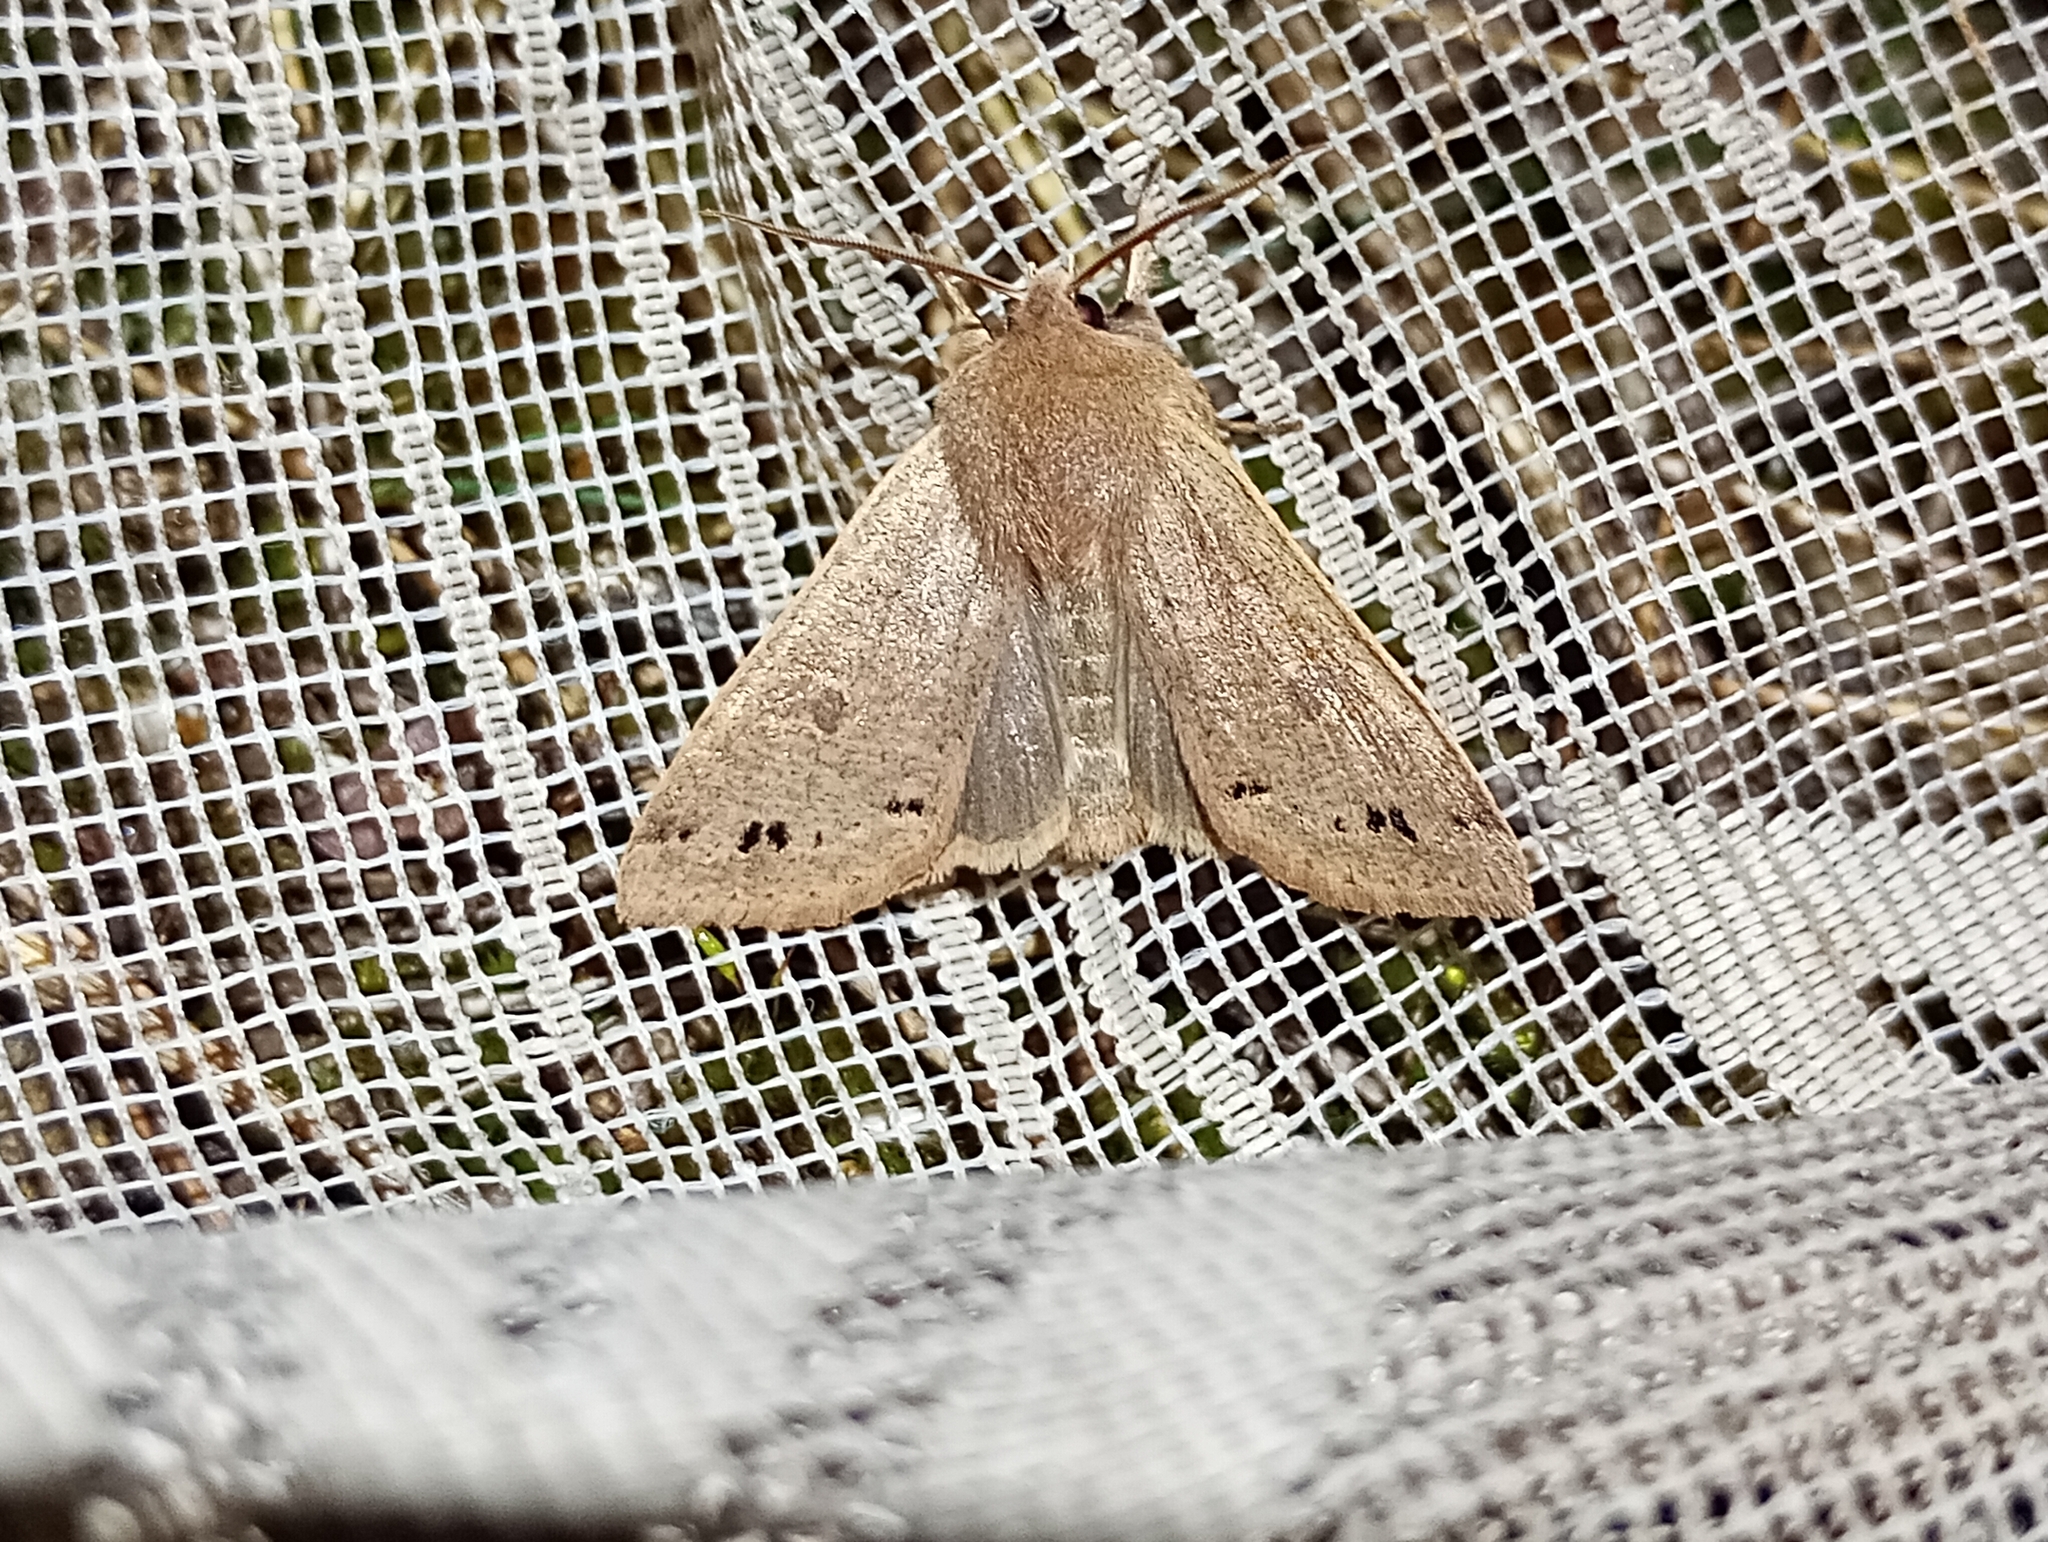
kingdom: Animalia
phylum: Arthropoda
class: Insecta
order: Lepidoptera
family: Noctuidae
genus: Anorthoa
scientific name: Anorthoa munda
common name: Twin-spotted quaker
